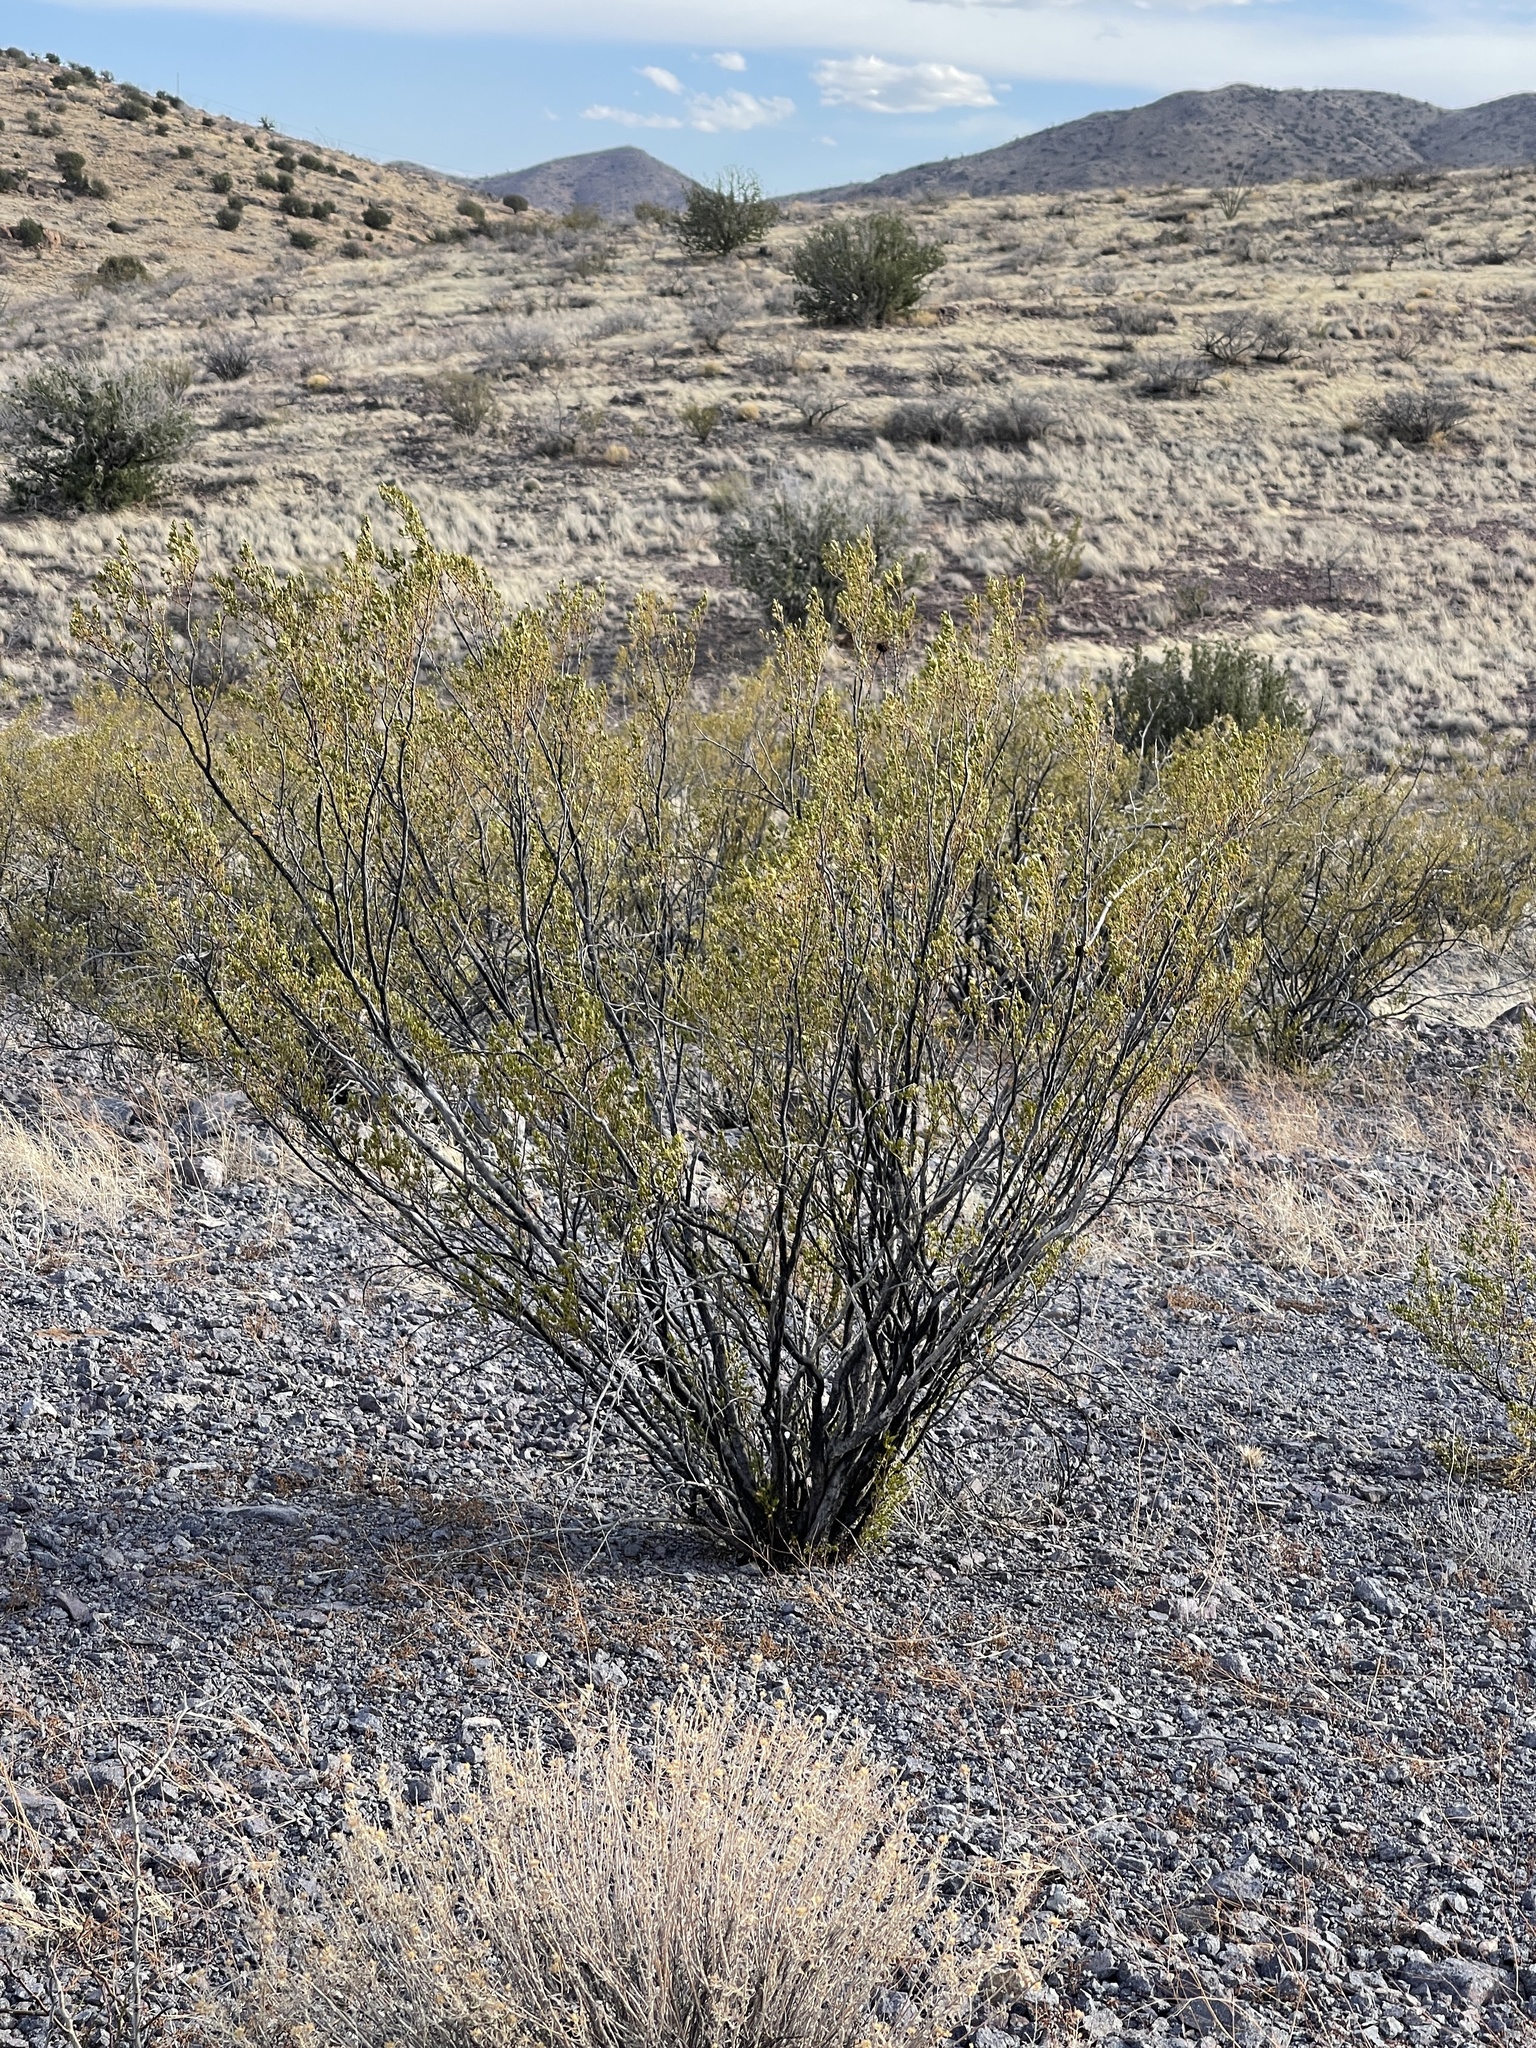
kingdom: Plantae
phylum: Tracheophyta
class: Magnoliopsida
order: Zygophyllales
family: Zygophyllaceae
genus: Larrea
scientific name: Larrea tridentata
